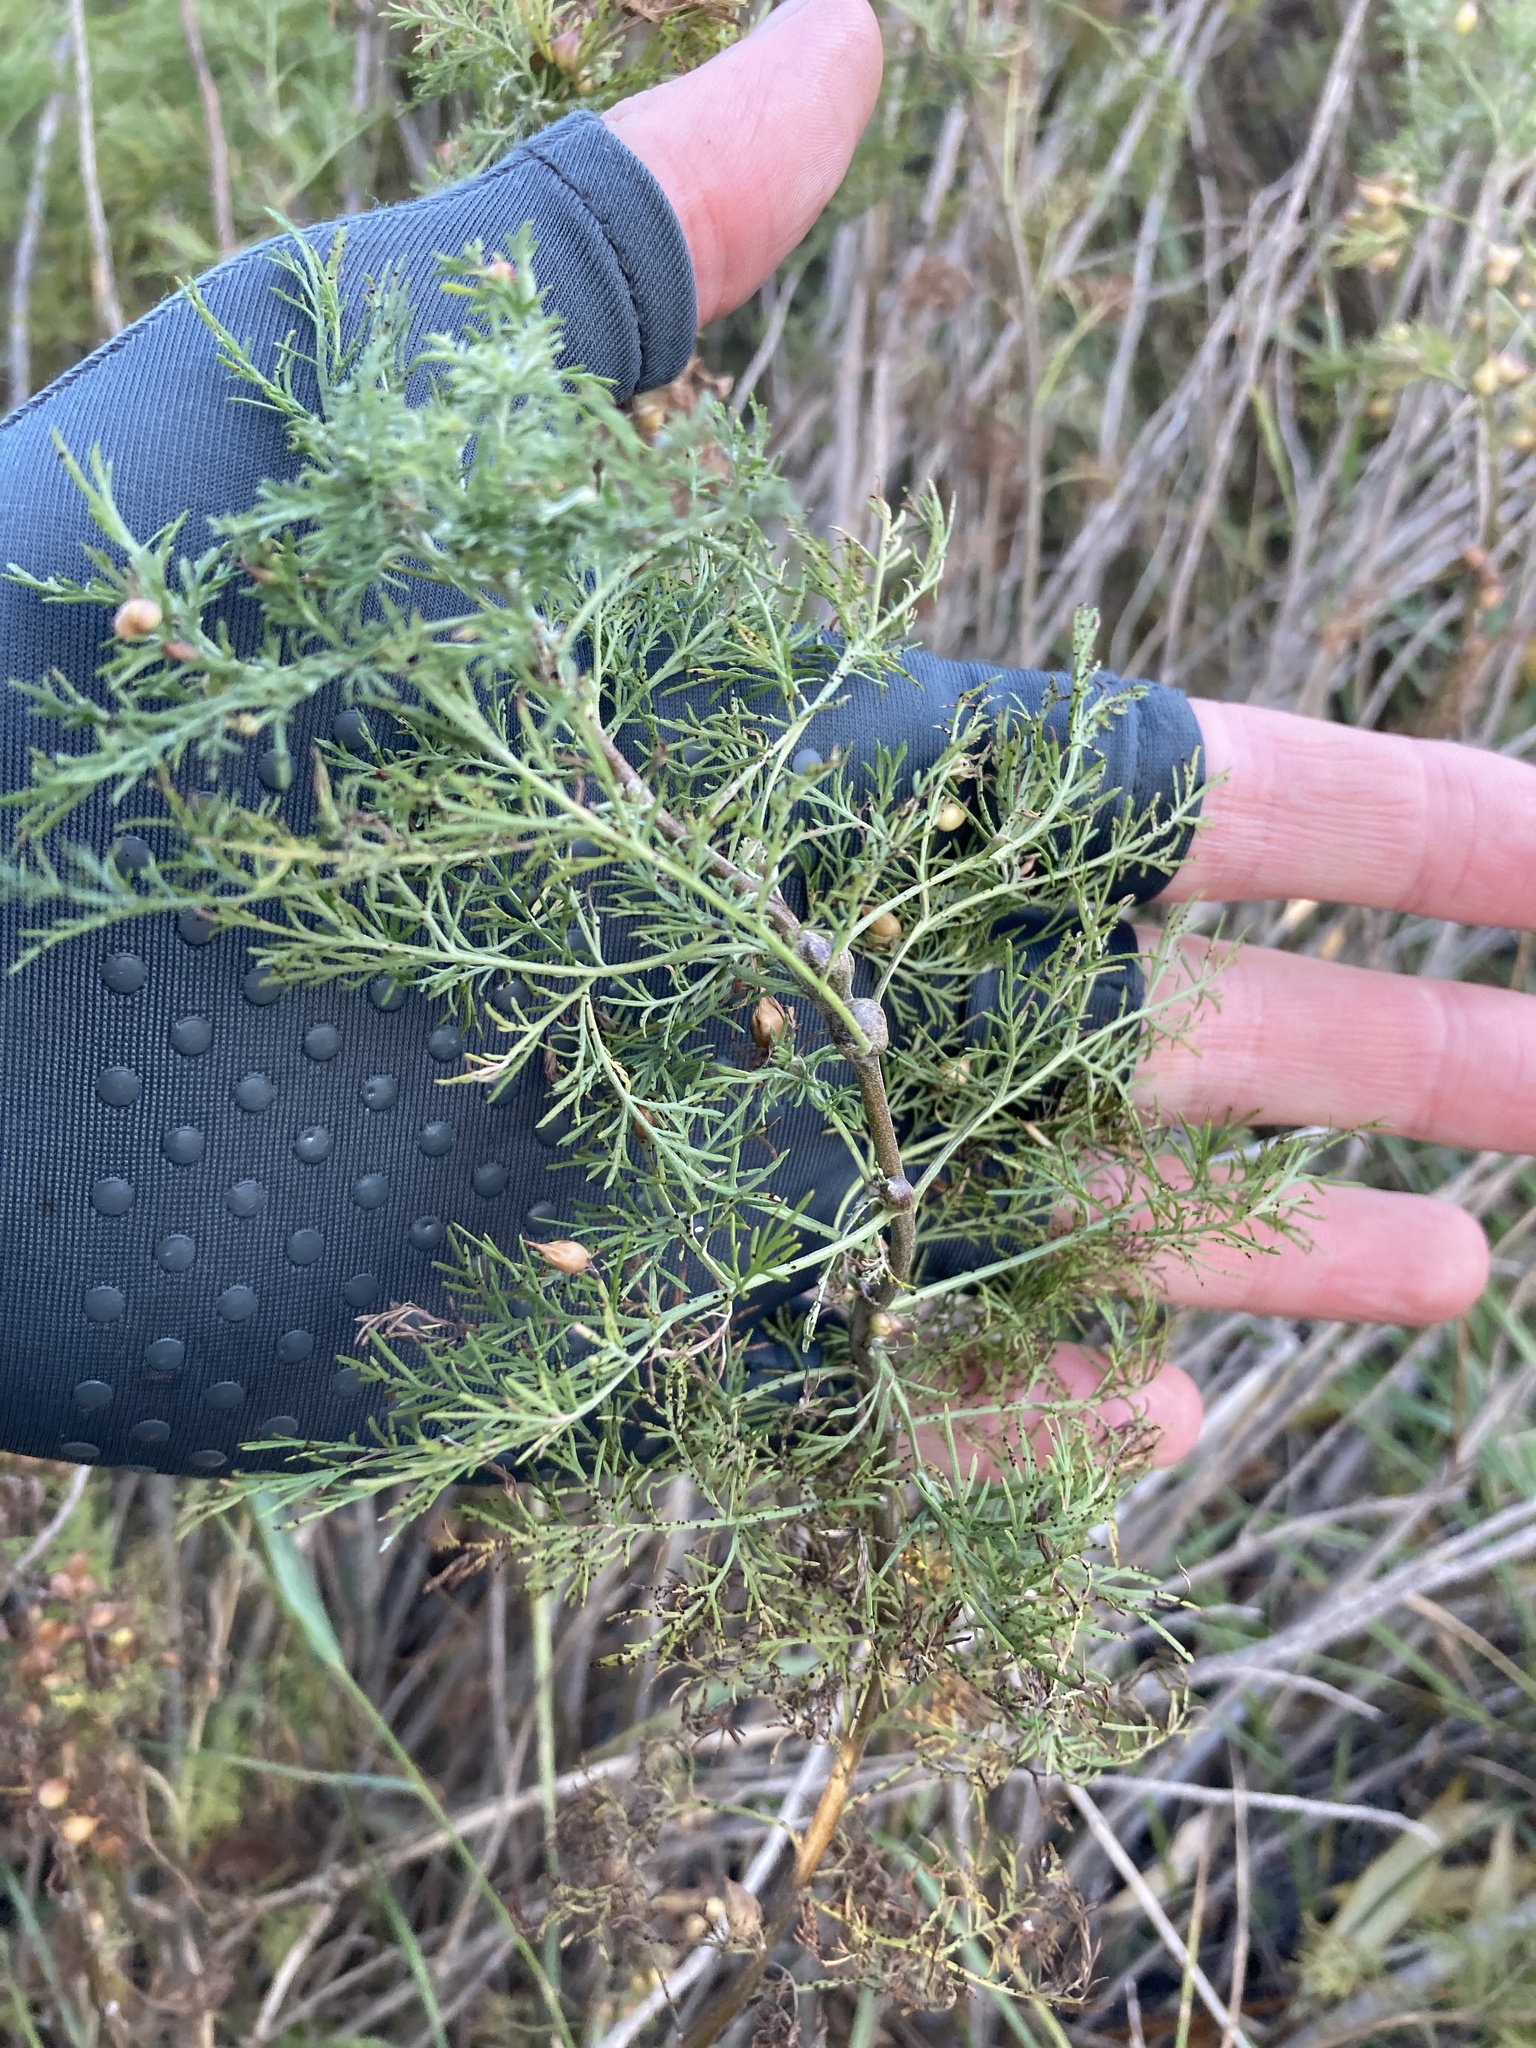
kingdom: Plantae
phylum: Tracheophyta
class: Magnoliopsida
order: Asterales
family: Asteraceae
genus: Artemisia
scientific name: Artemisia abrotanum
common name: Southernwood
